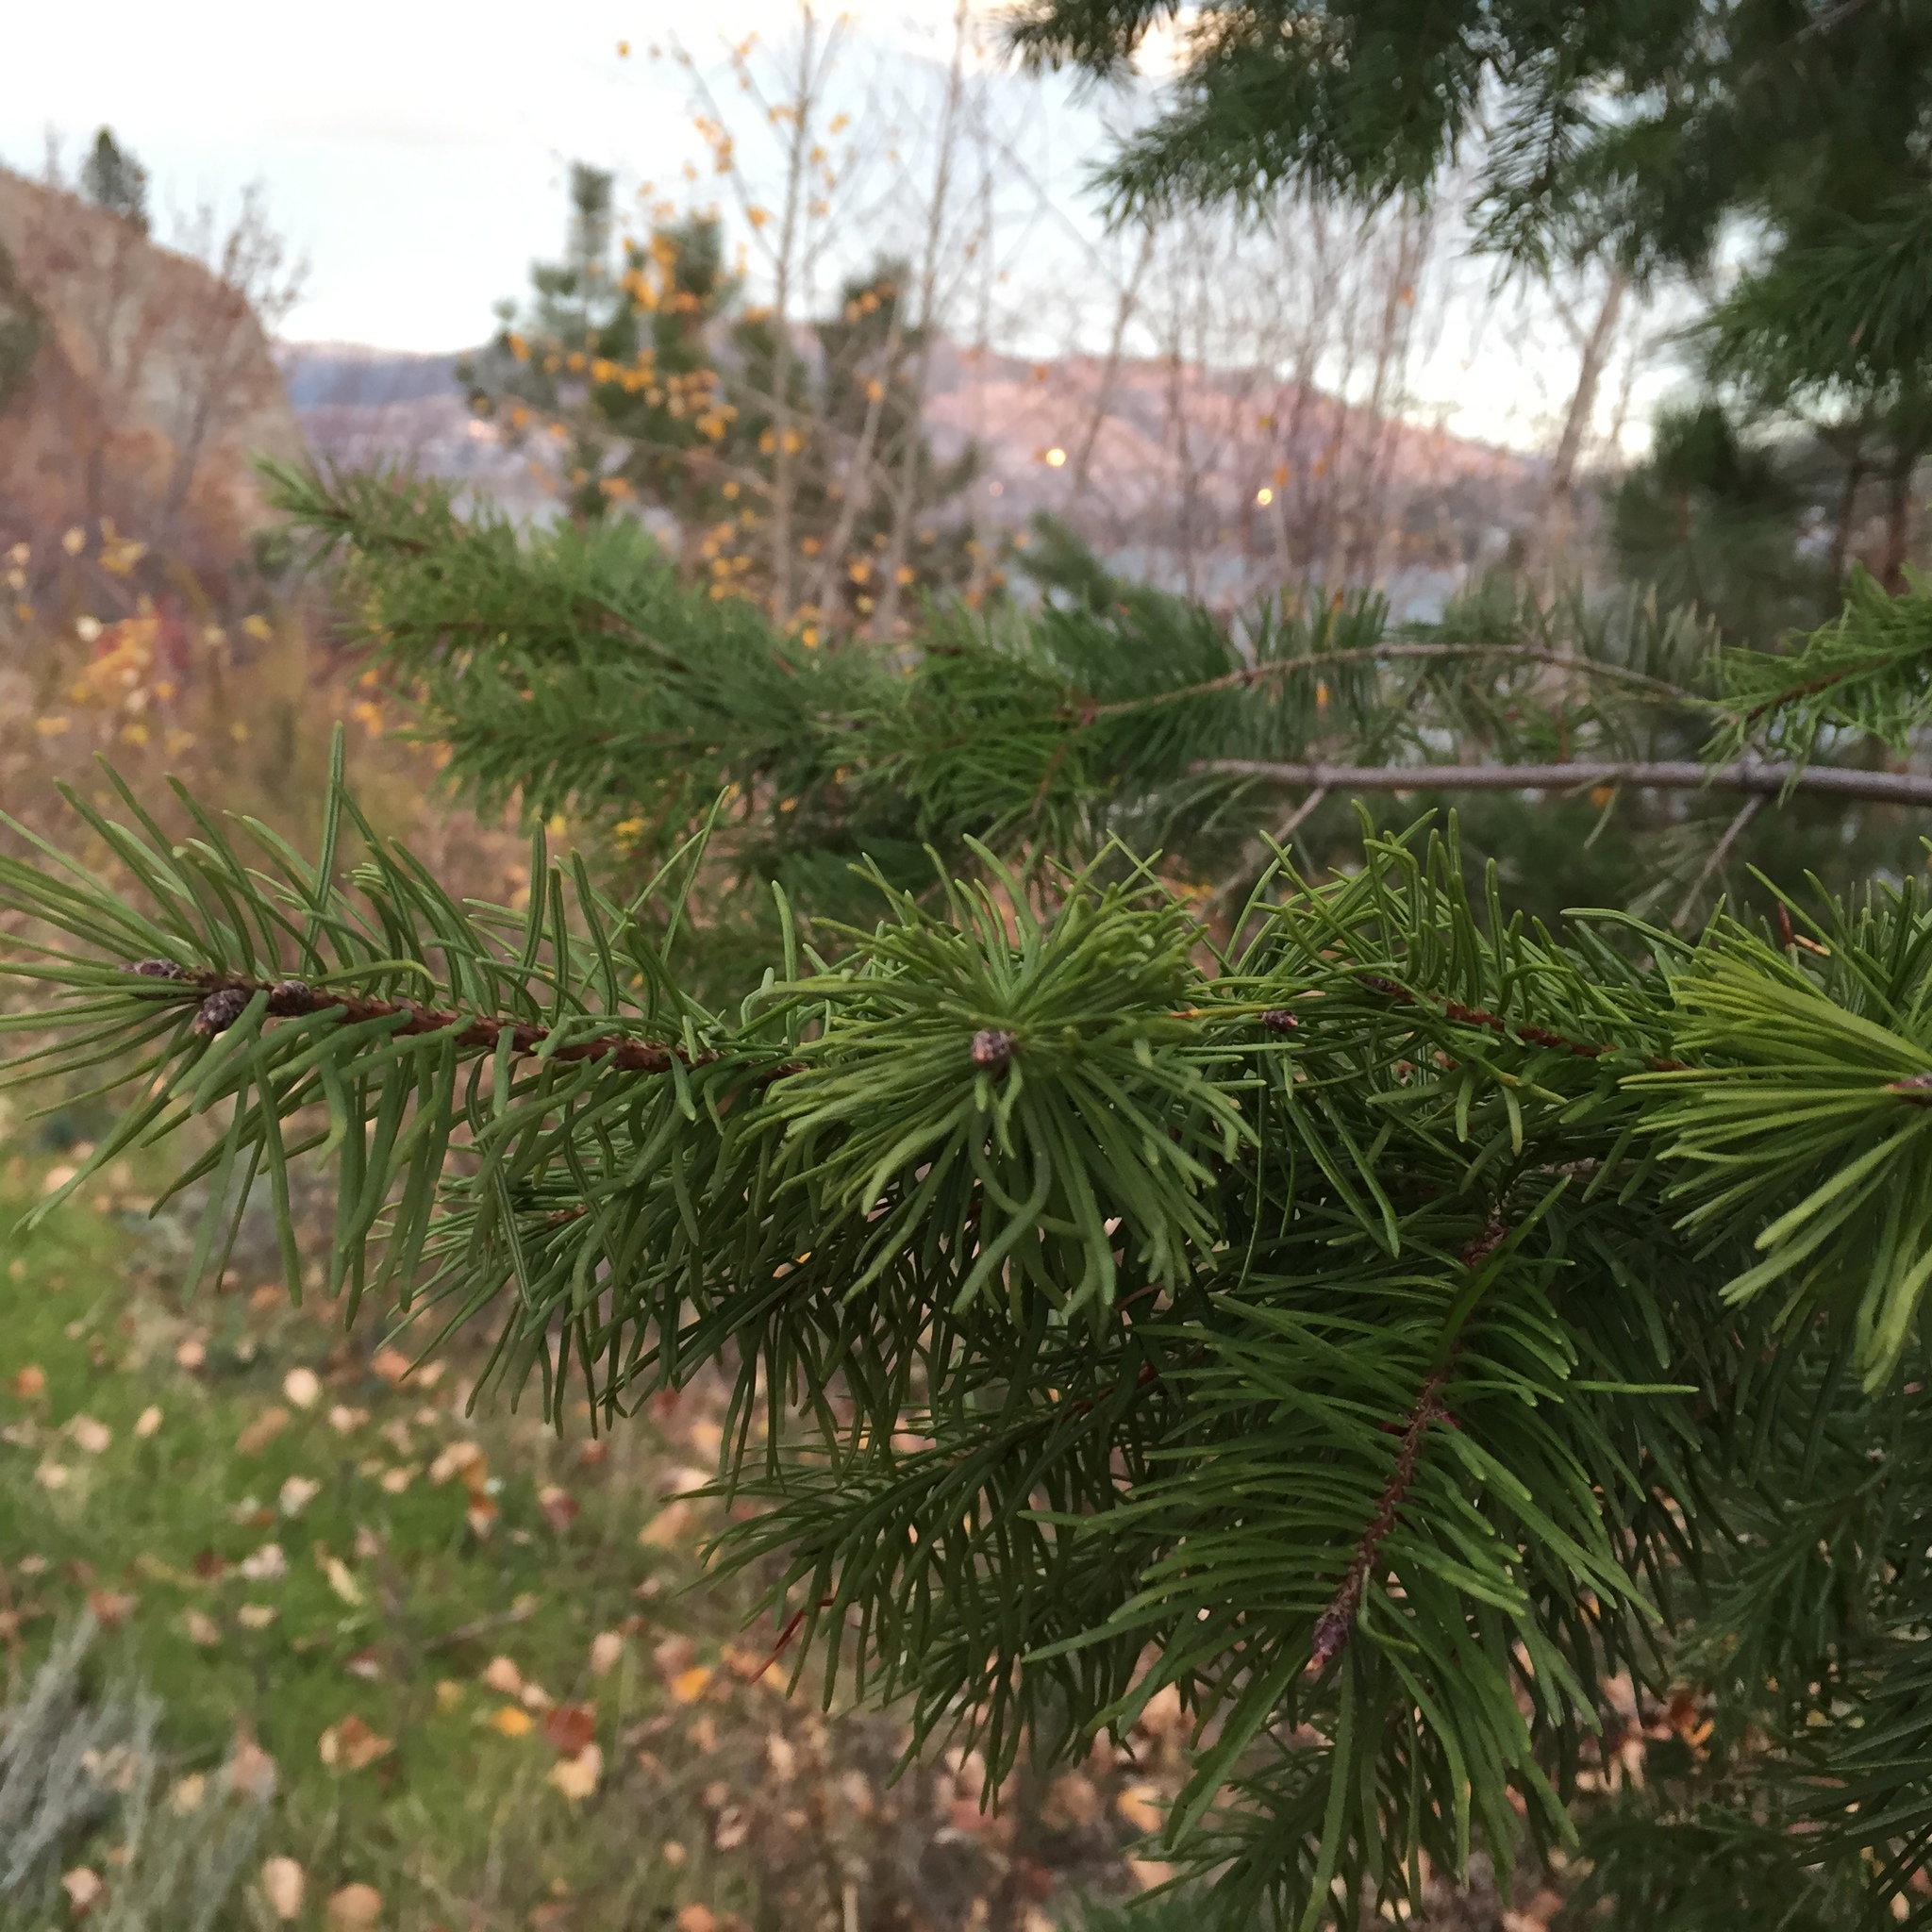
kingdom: Plantae
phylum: Tracheophyta
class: Pinopsida
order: Pinales
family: Pinaceae
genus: Pseudotsuga
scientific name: Pseudotsuga menziesii
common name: Douglas fir
